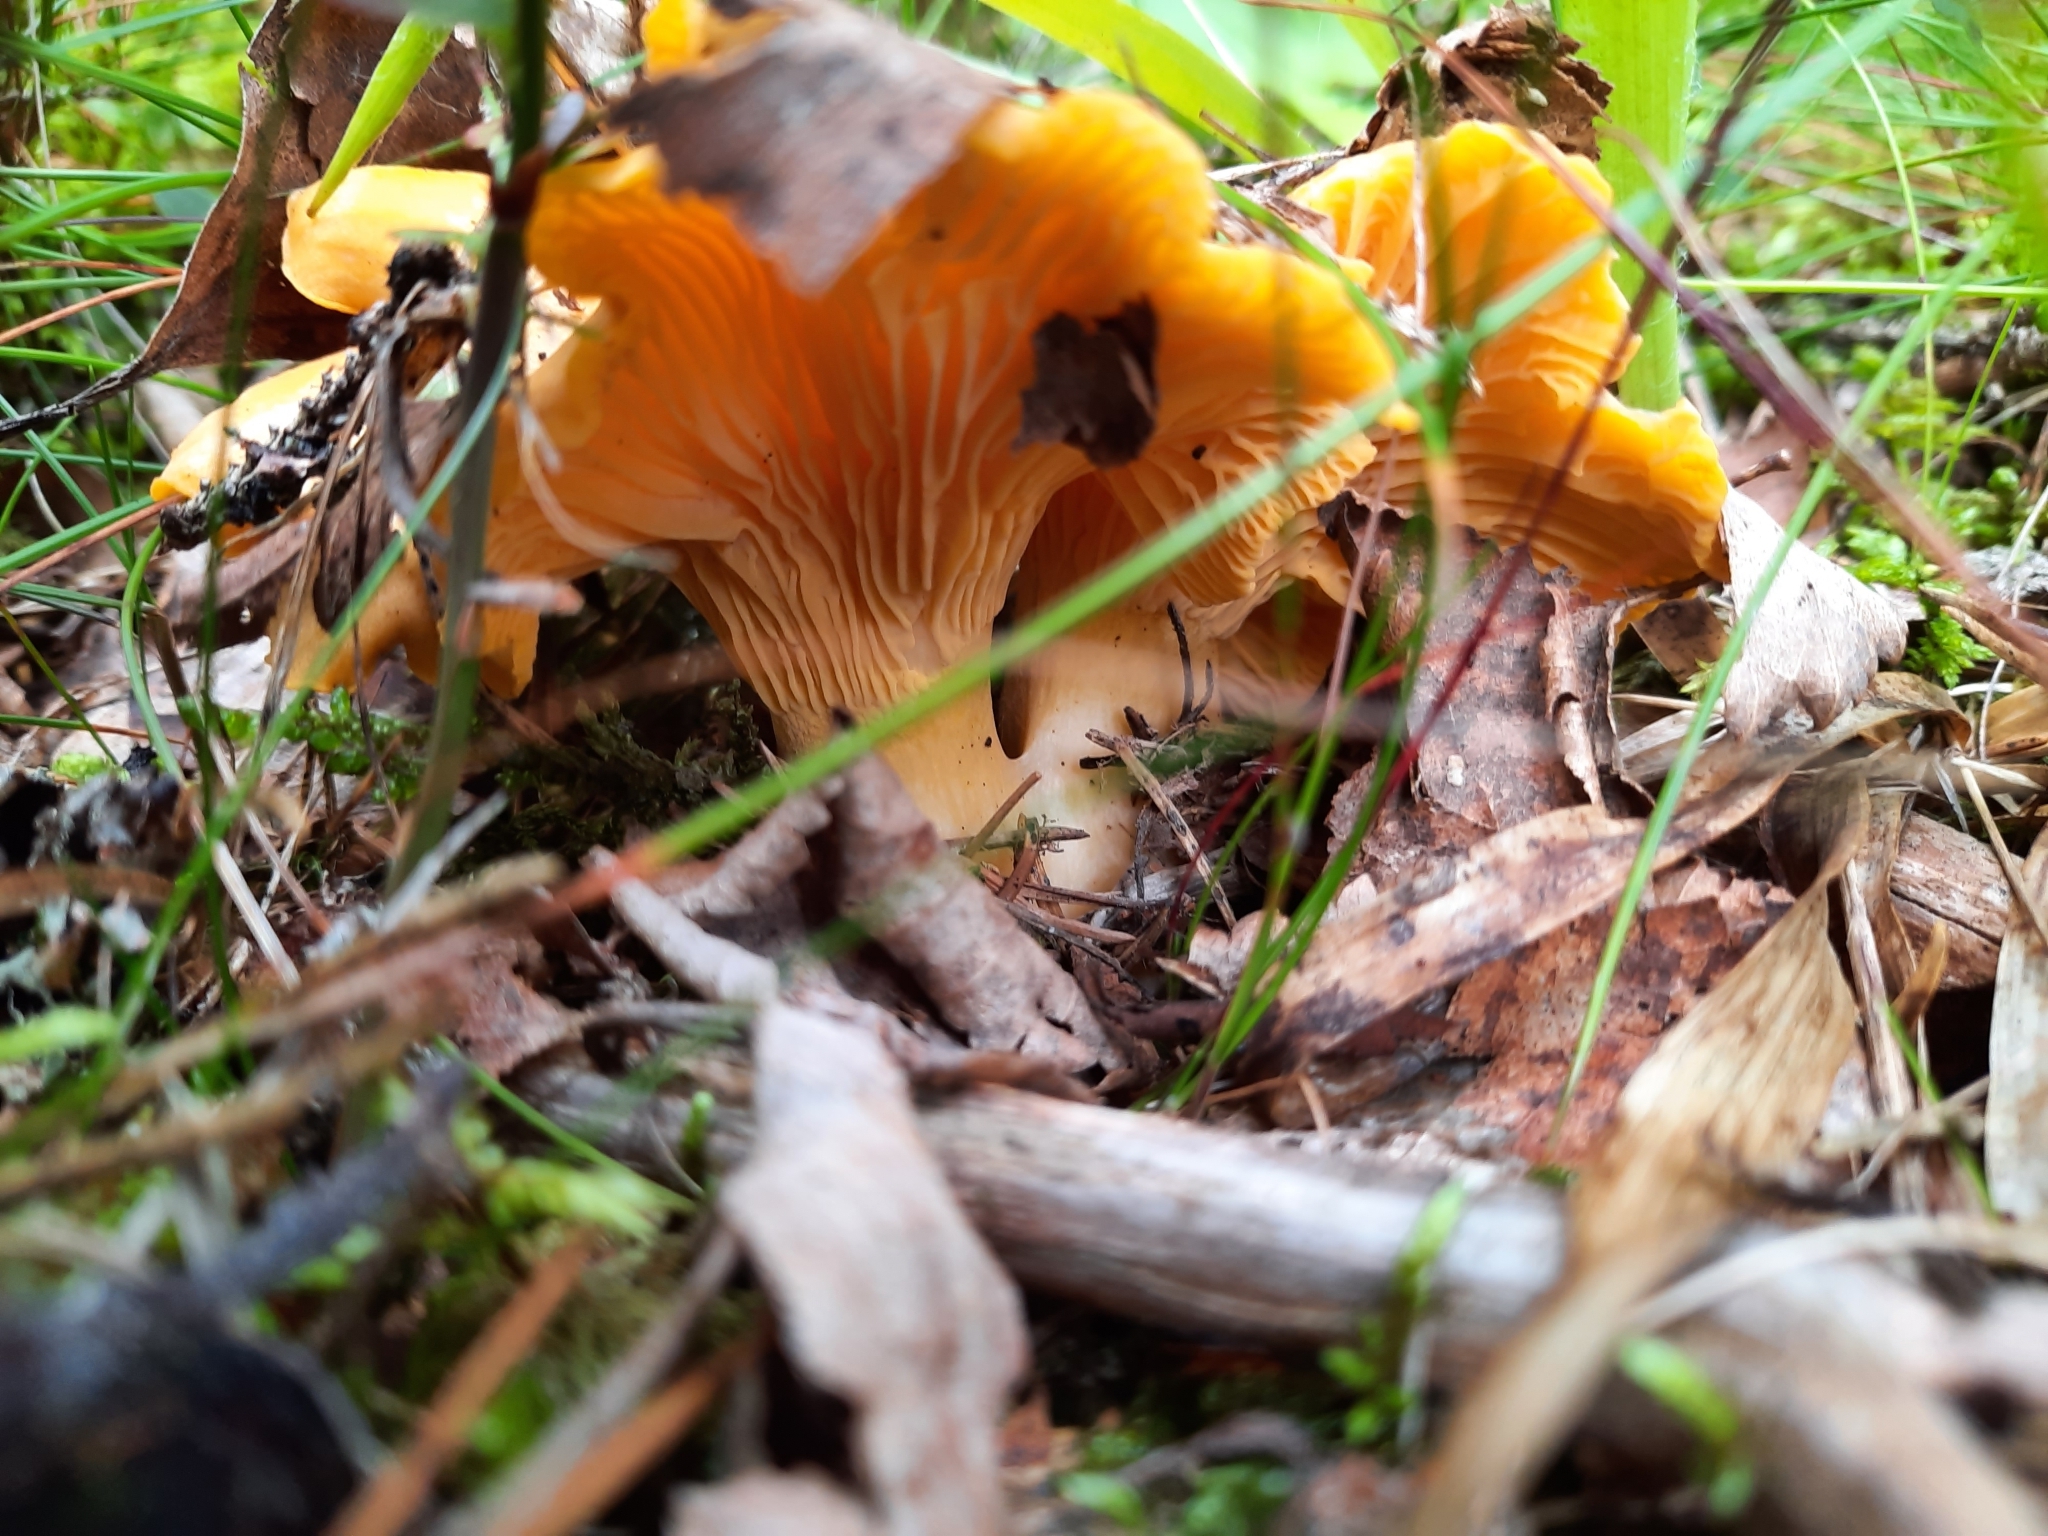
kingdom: Fungi
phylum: Basidiomycota
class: Agaricomycetes
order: Cantharellales
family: Hydnaceae
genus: Cantharellus
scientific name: Cantharellus cibarius
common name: Chanterelle
